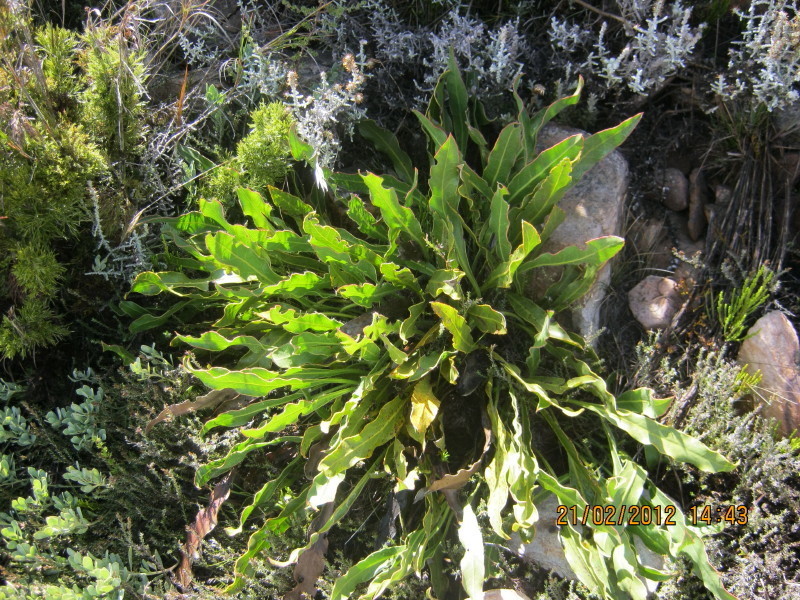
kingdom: Plantae
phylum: Tracheophyta
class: Magnoliopsida
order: Proteales
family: Proteaceae
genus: Protea
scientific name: Protea scolopendriifolia
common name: Harts-tongue-fern sugarbush
